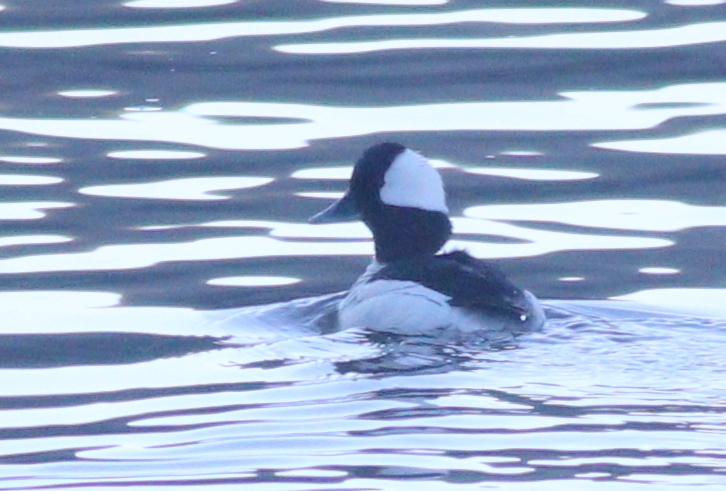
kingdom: Animalia
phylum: Chordata
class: Aves
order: Anseriformes
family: Anatidae
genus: Bucephala
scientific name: Bucephala albeola
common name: Bufflehead
